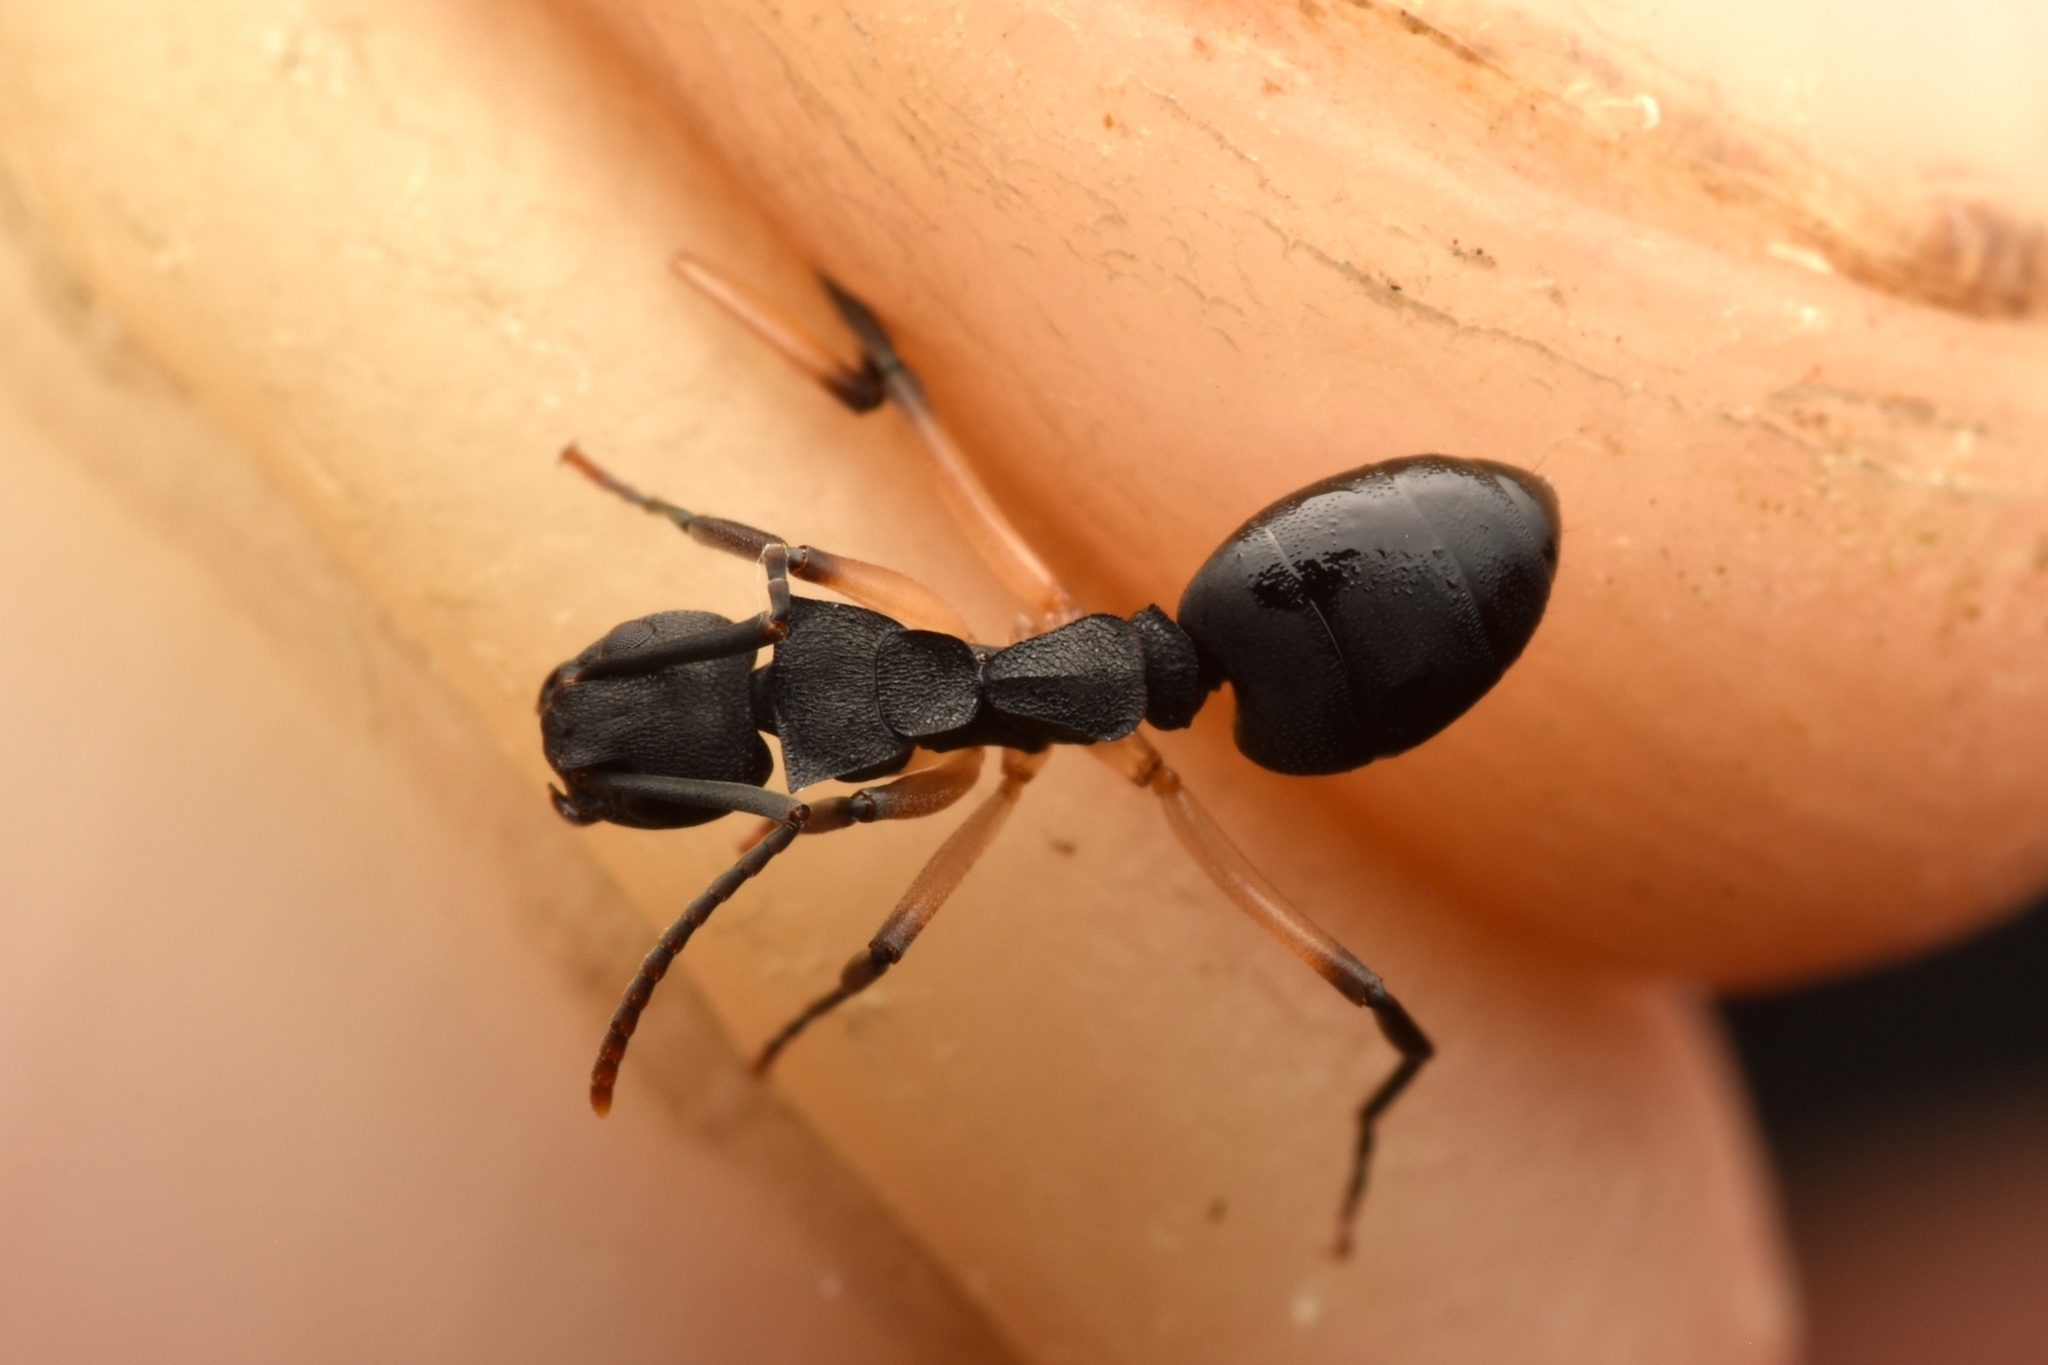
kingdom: Animalia
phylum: Arthropoda
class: Insecta
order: Hymenoptera
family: Formicidae
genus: Dolichoderus
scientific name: Dolichoderus laminatus
